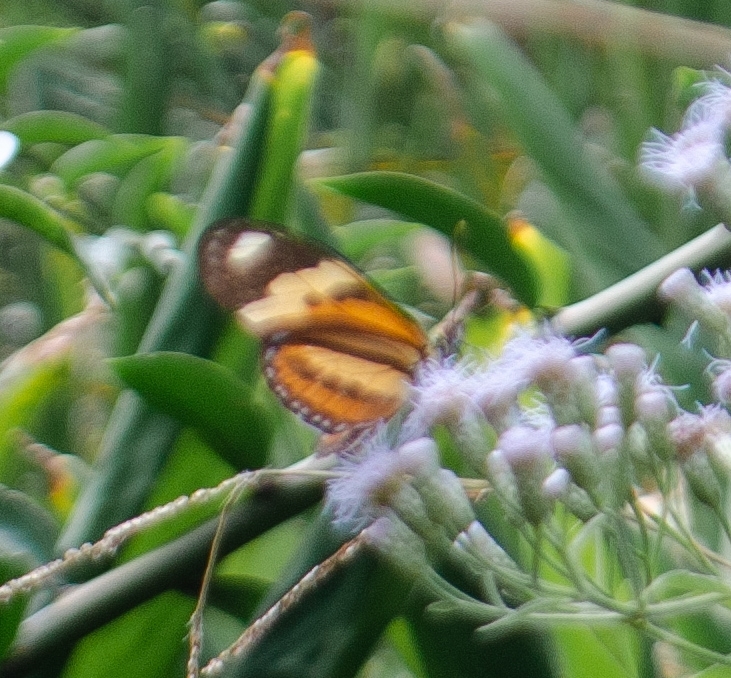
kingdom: Animalia
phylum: Arthropoda
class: Insecta
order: Lepidoptera
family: Nymphalidae
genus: Eueides
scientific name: Eueides isabella
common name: Isabella's longwing
